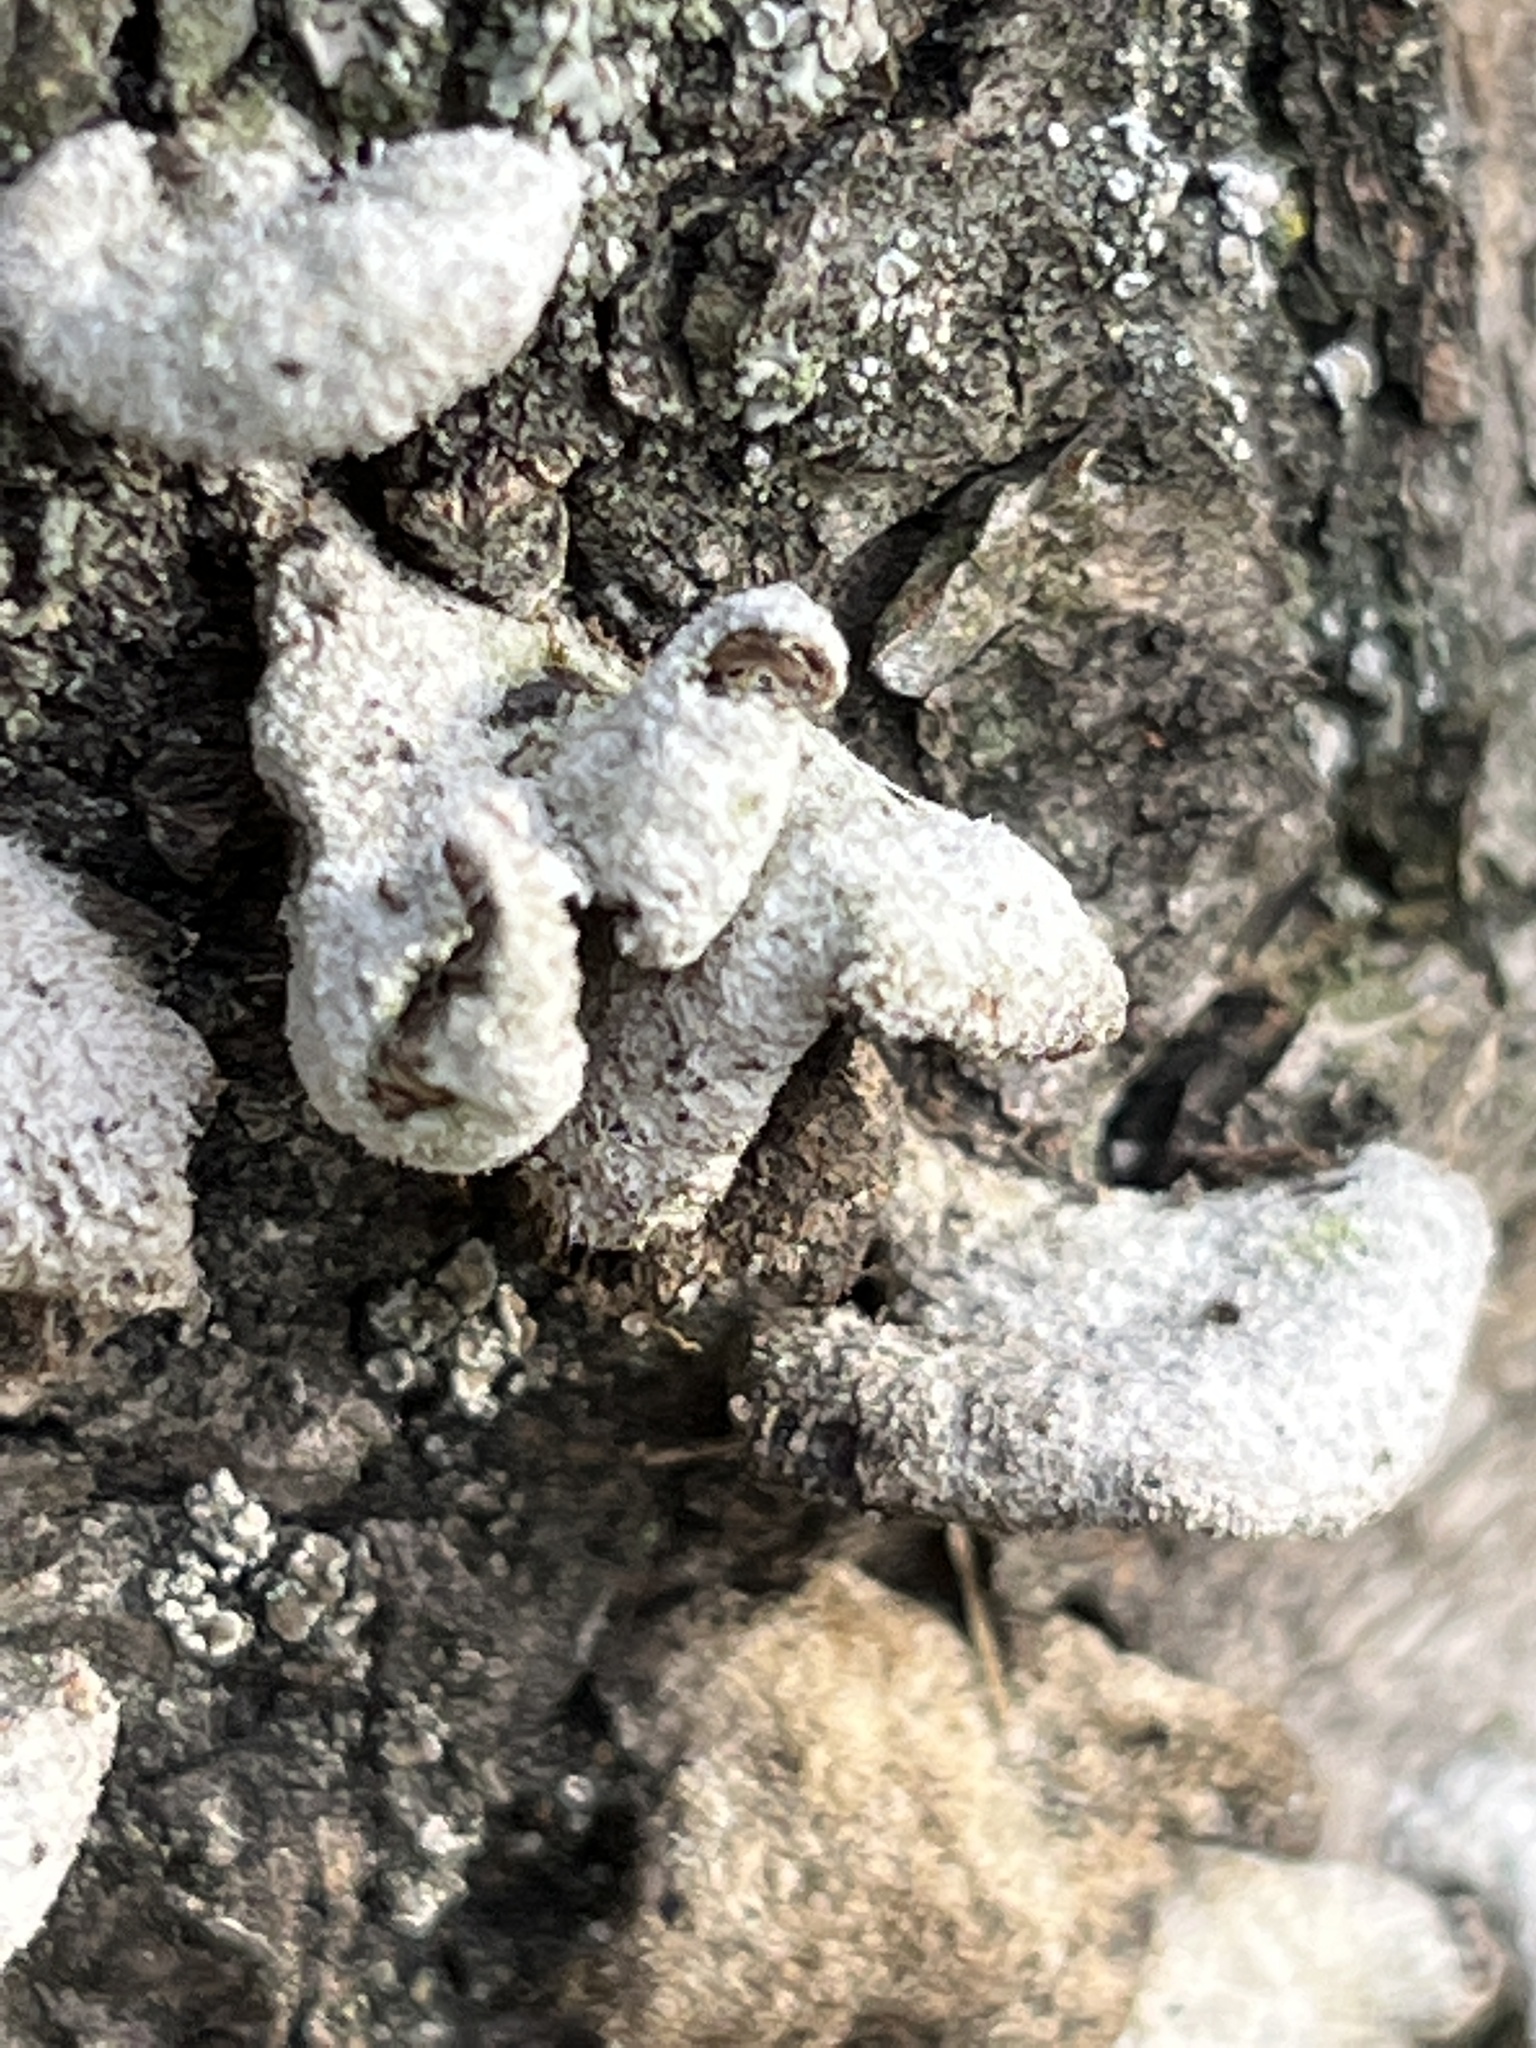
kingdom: Fungi
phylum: Basidiomycota
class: Agaricomycetes
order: Agaricales
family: Schizophyllaceae
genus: Schizophyllum
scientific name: Schizophyllum commune
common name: Common porecrust
